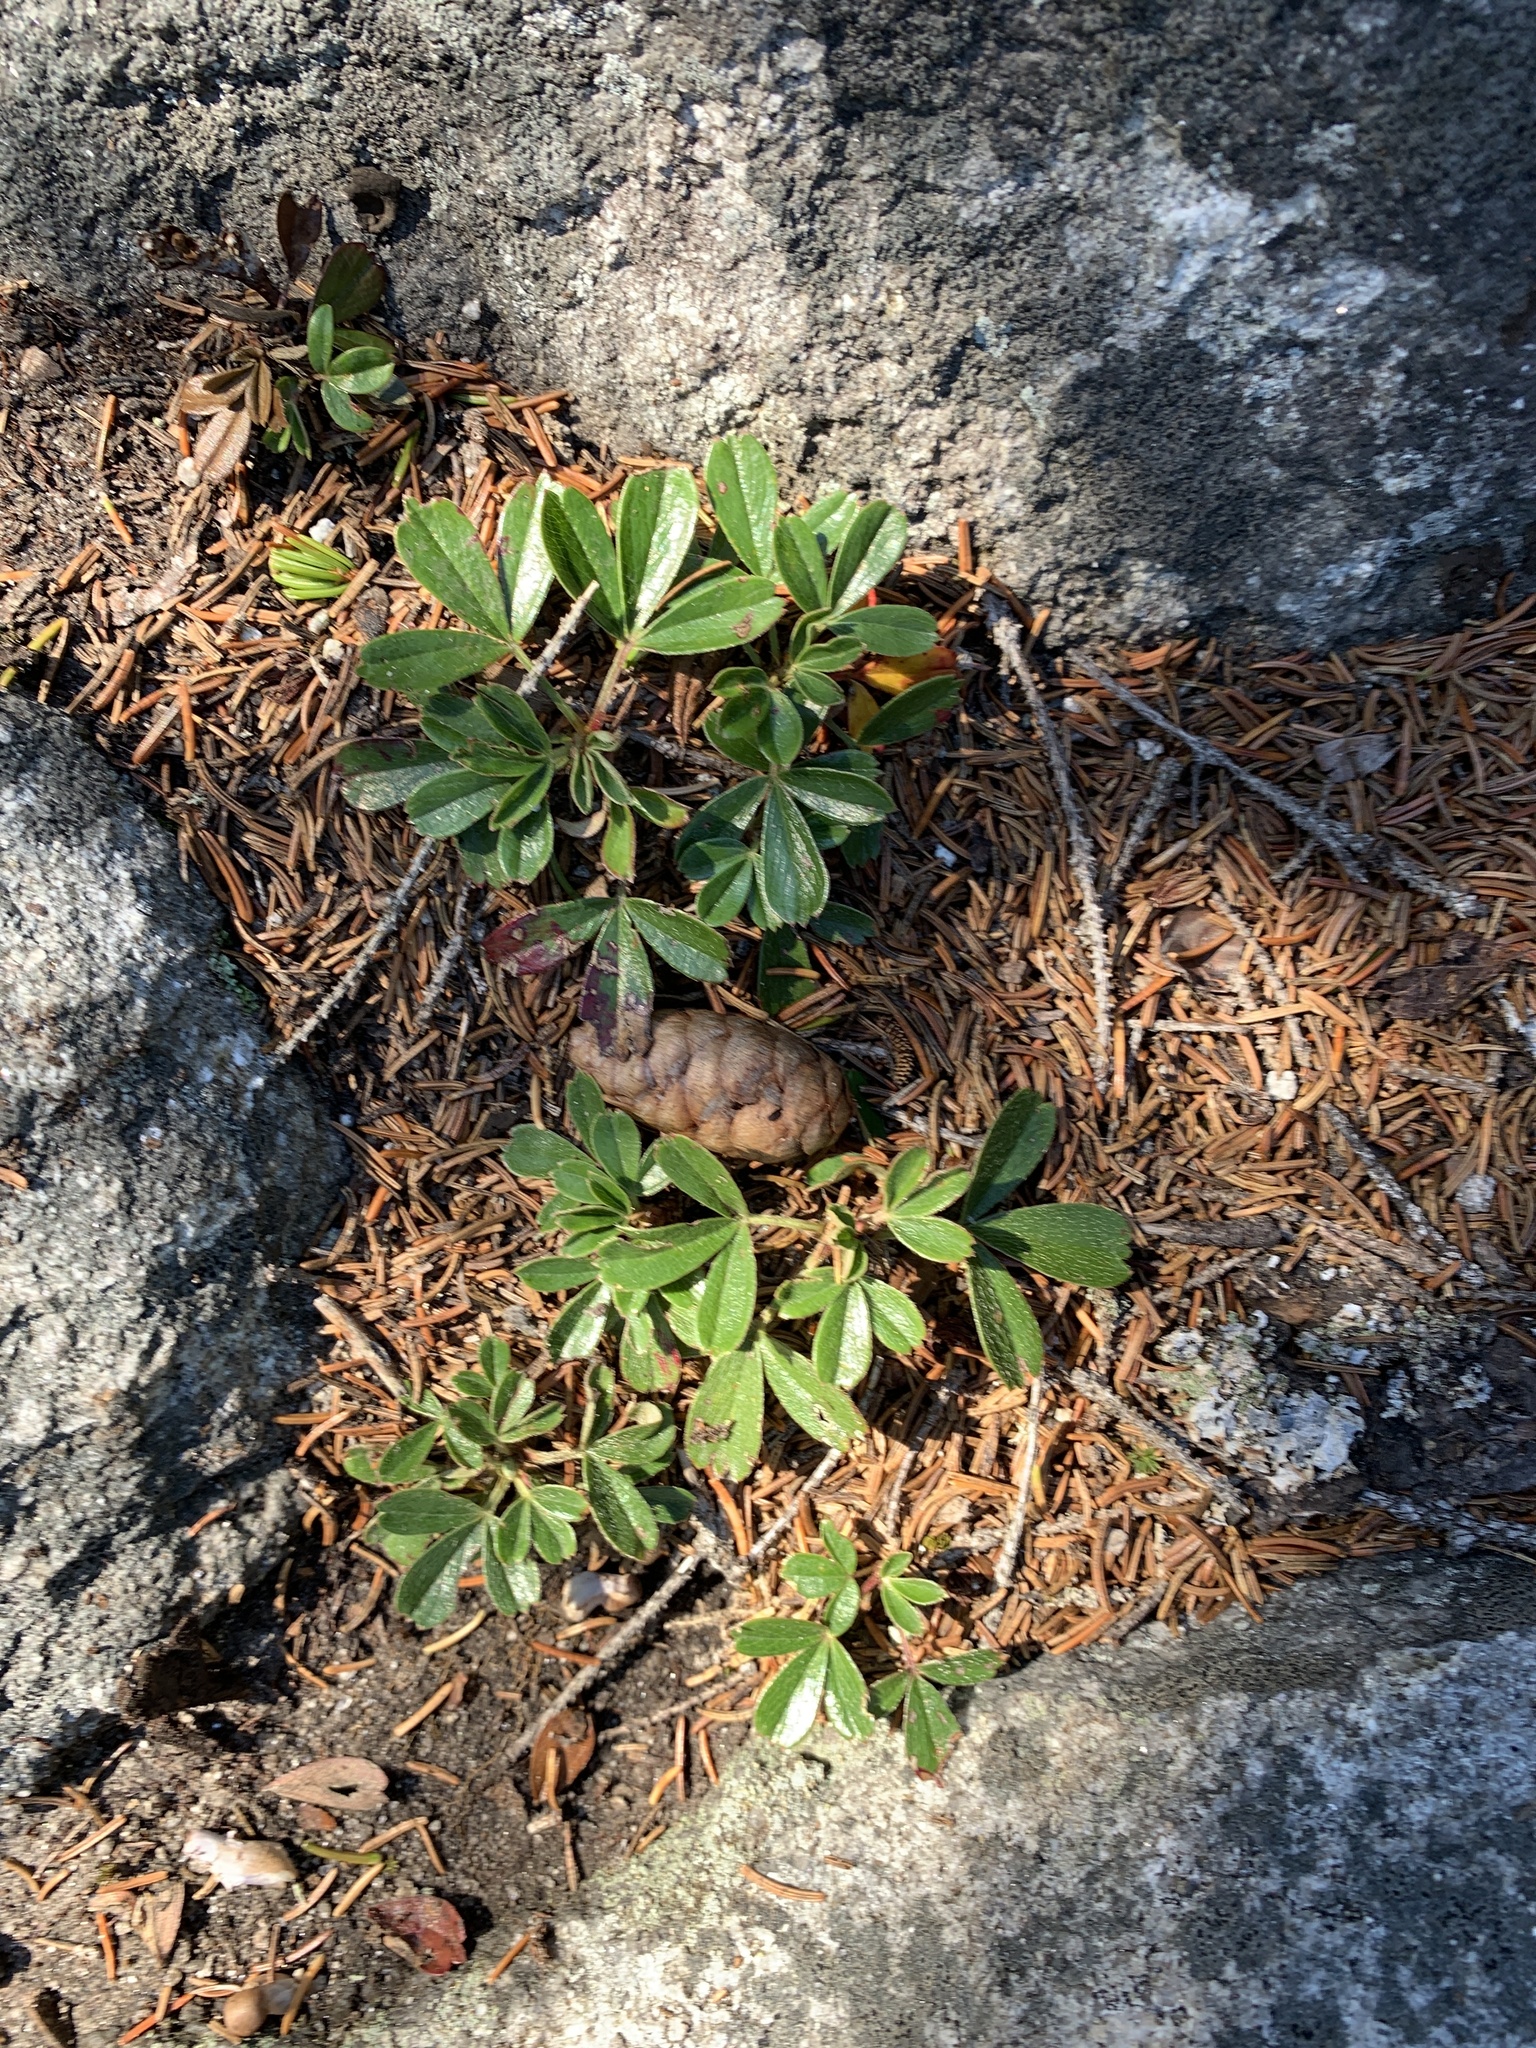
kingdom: Plantae
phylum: Tracheophyta
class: Magnoliopsida
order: Rosales
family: Rosaceae
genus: Sibbaldia
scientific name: Sibbaldia tridentata
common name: Three-toothed cinquefoil
